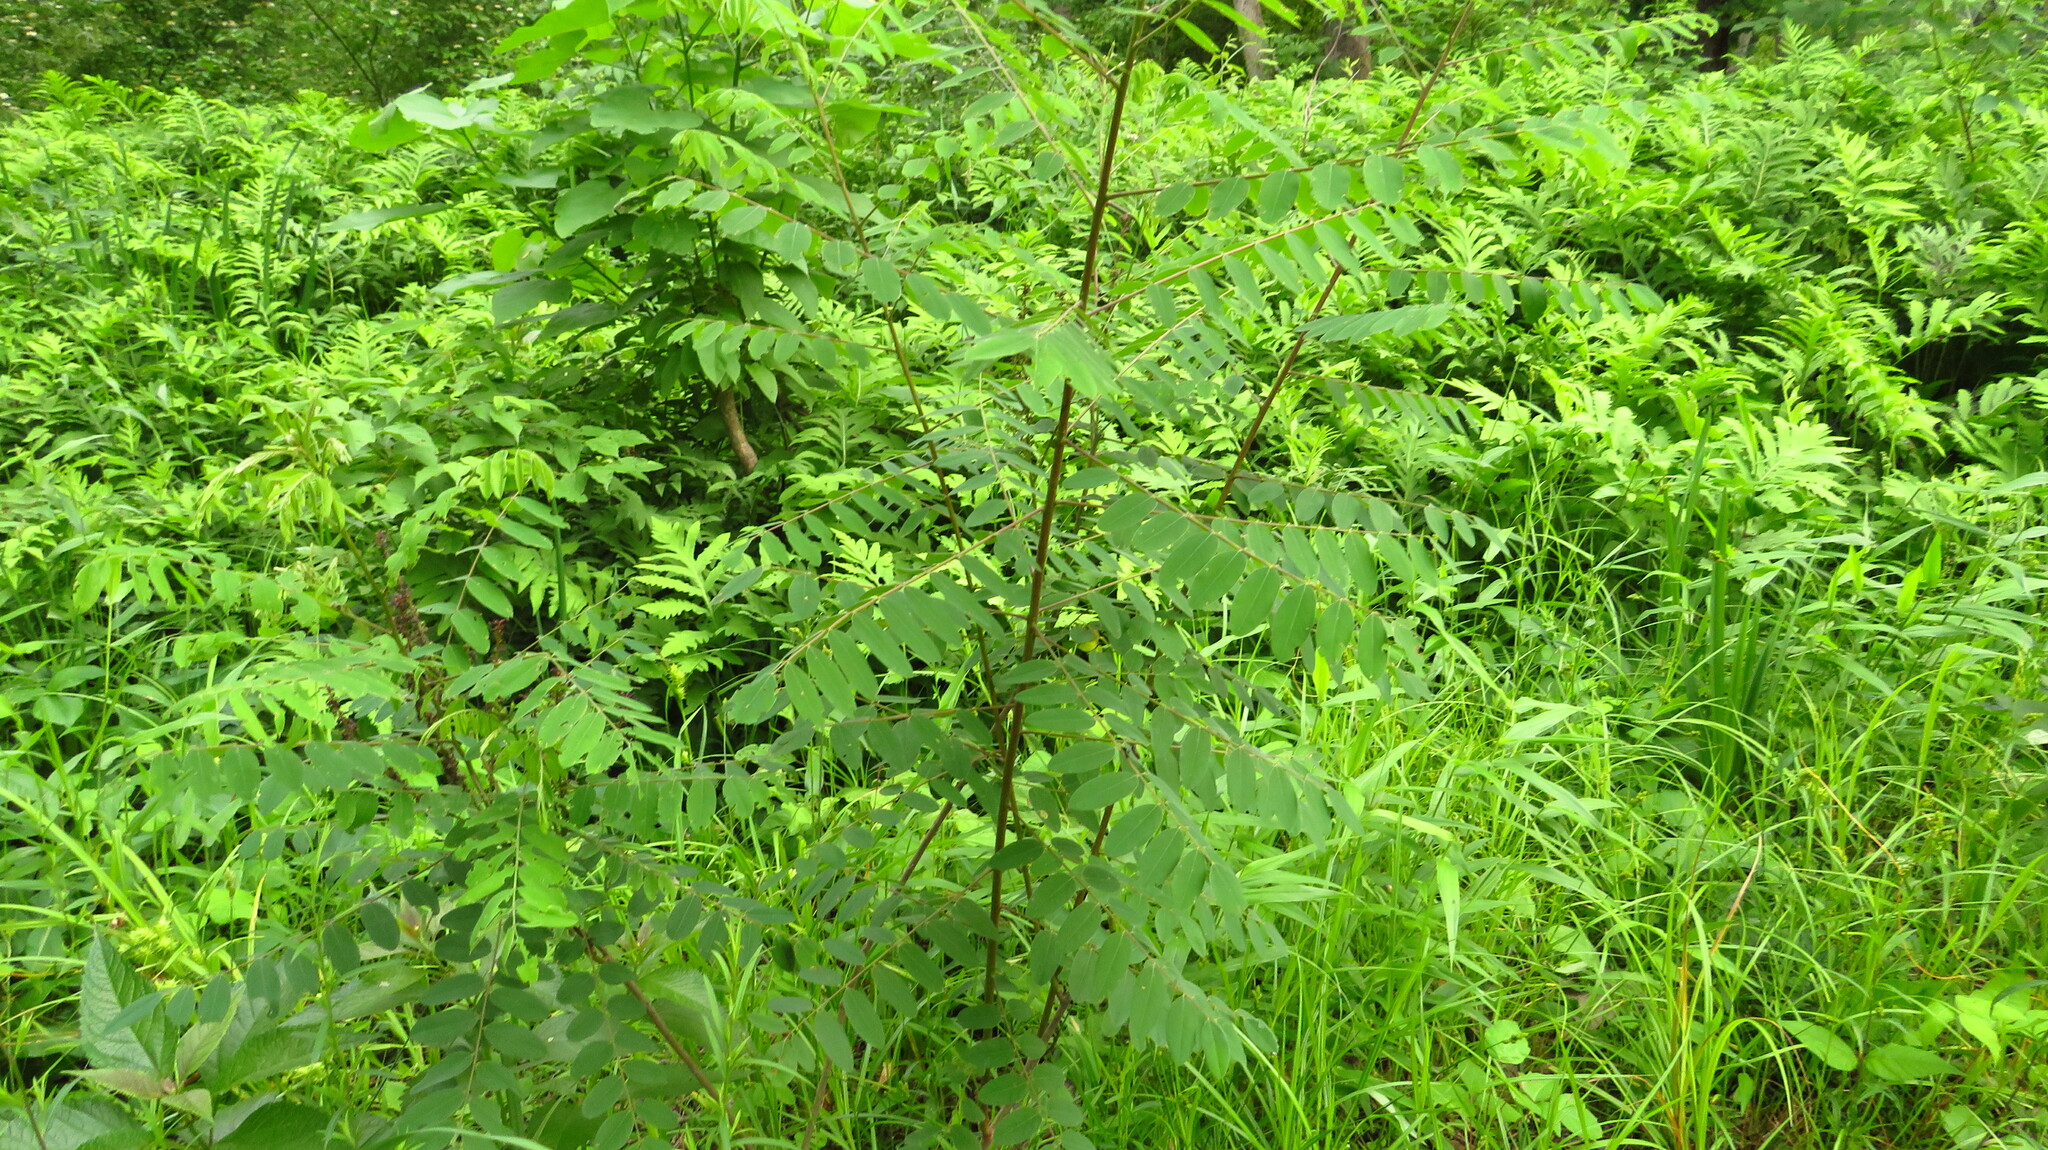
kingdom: Plantae
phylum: Tracheophyta
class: Magnoliopsida
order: Fabales
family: Fabaceae
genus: Robinia
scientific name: Robinia pseudoacacia
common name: Black locust
